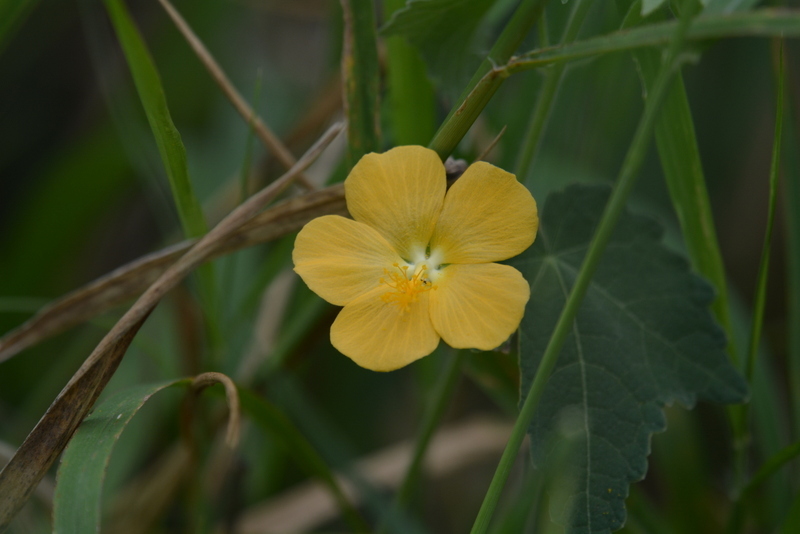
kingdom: Plantae
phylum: Tracheophyta
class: Magnoliopsida
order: Malvales
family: Malvaceae
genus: Pavonia
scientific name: Pavonia burchellii
